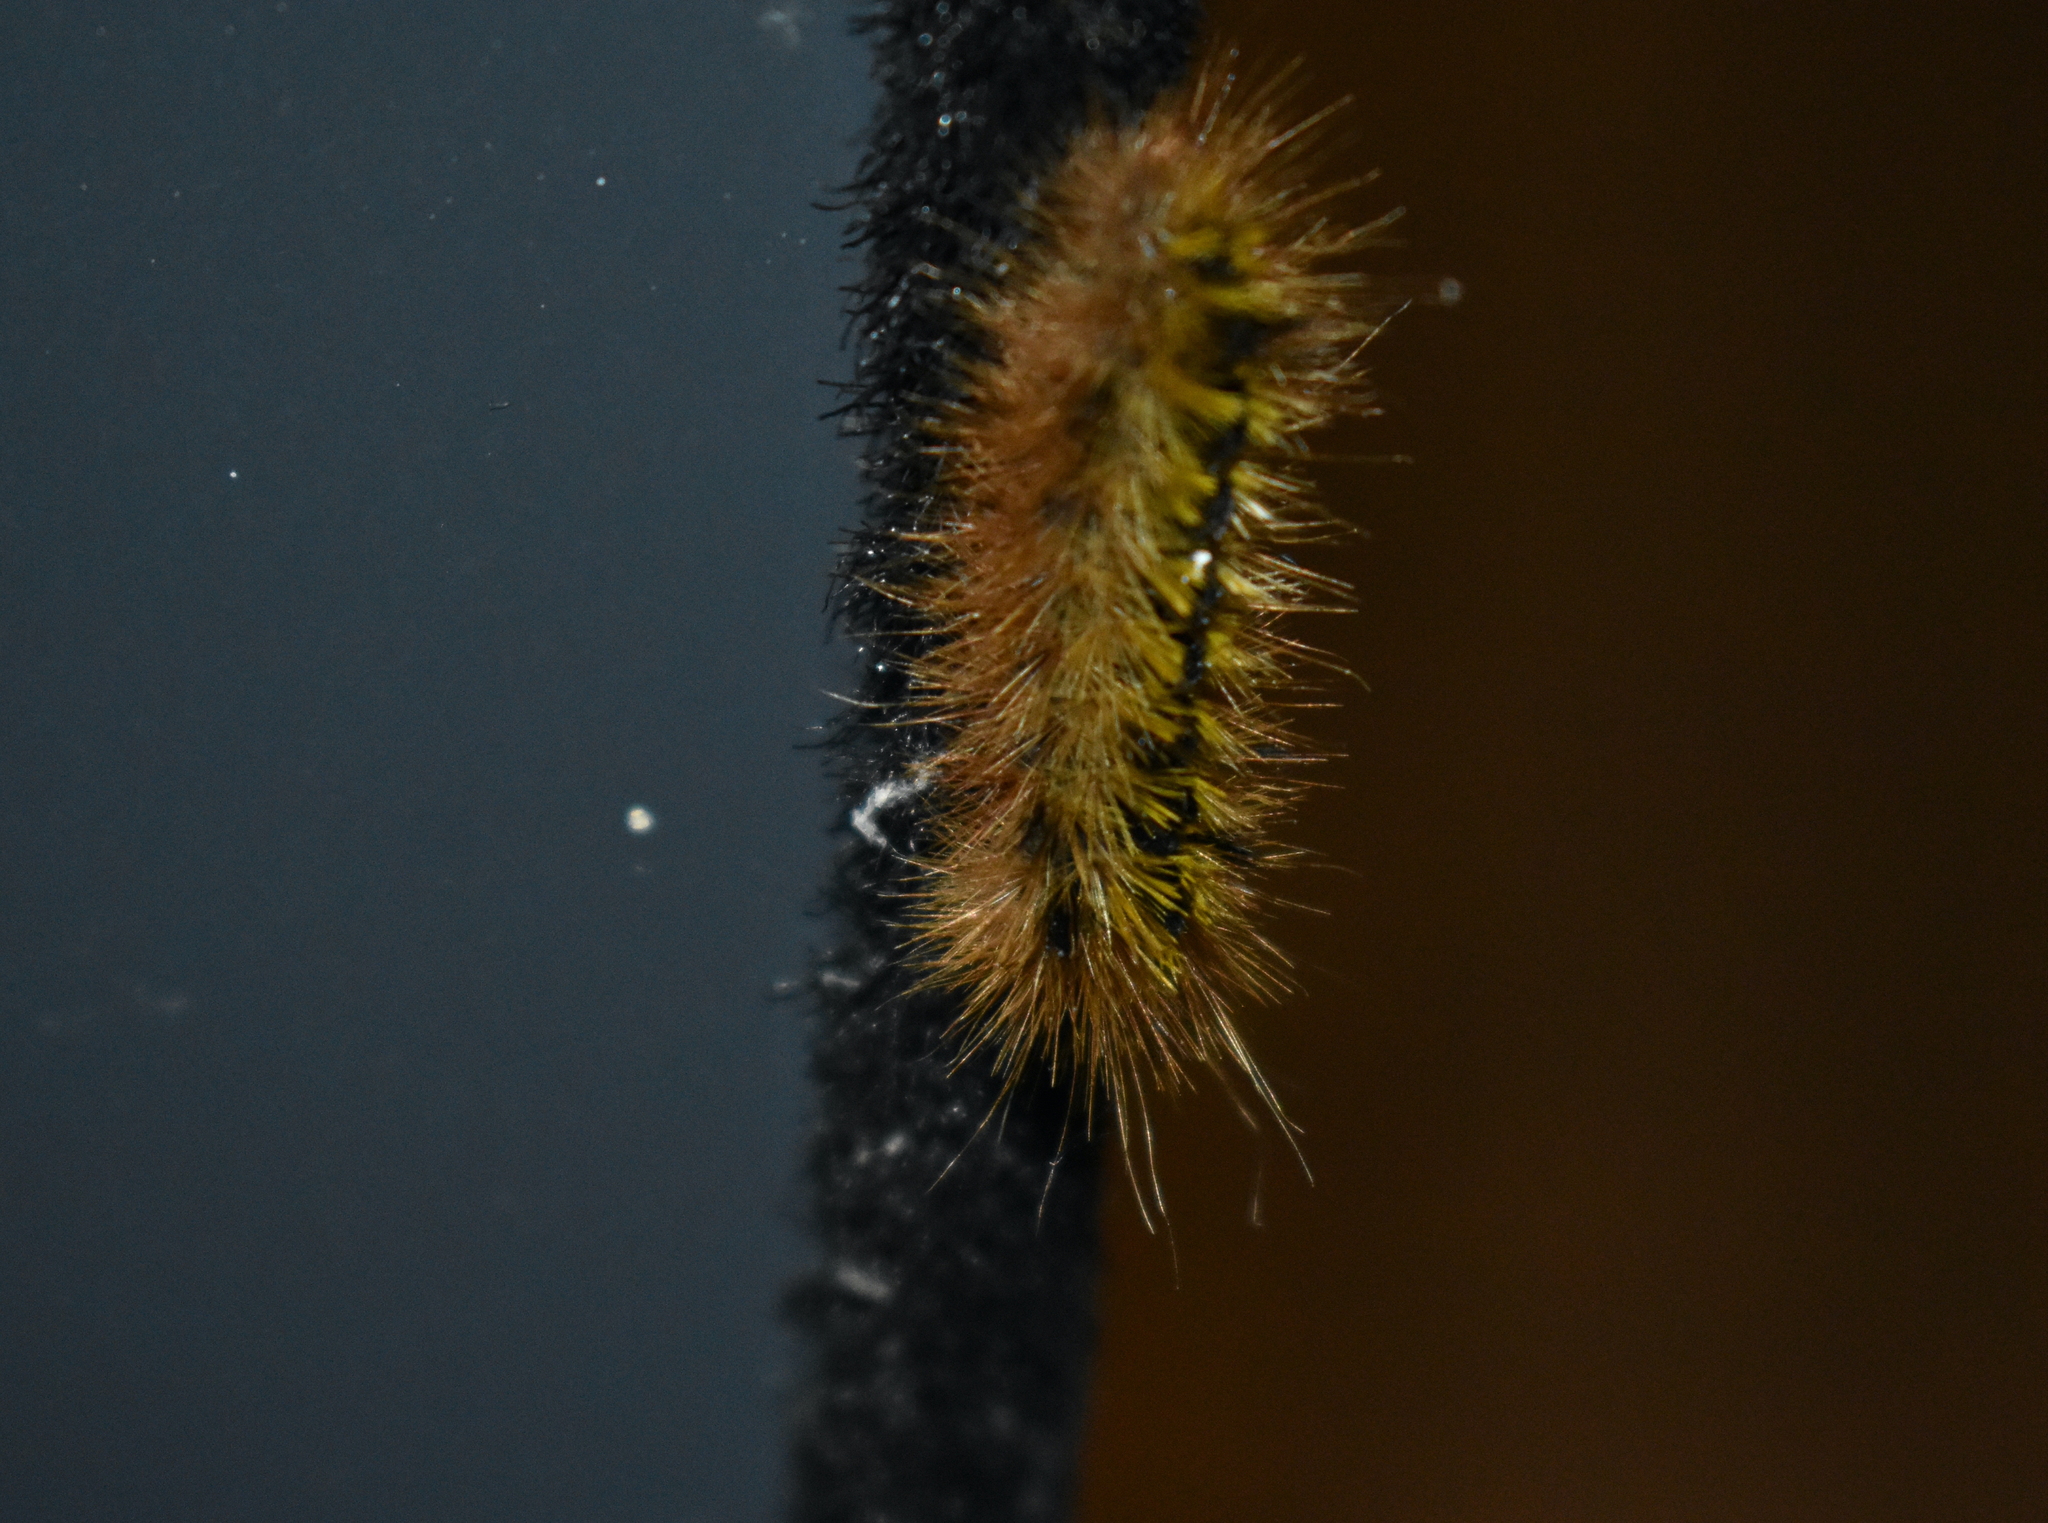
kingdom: Animalia
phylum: Arthropoda
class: Insecta
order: Lepidoptera
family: Erebidae
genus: Lophocampa
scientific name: Lophocampa argentata
